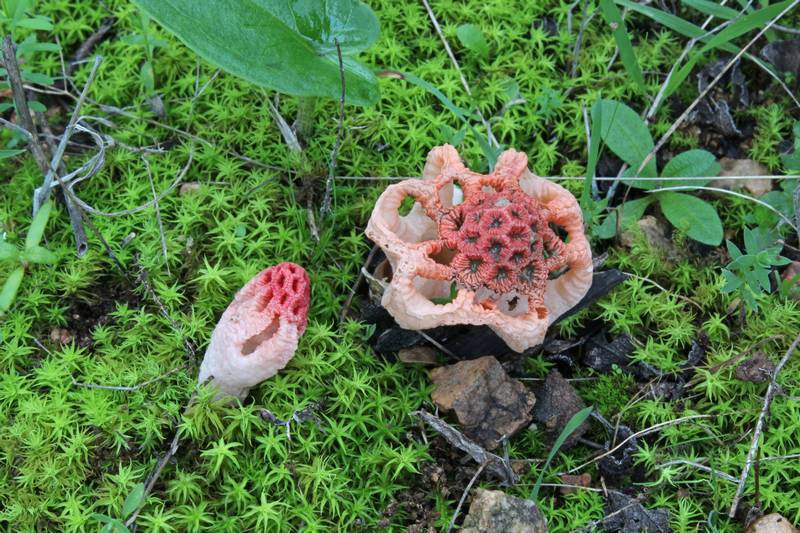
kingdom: Fungi
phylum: Basidiomycota
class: Agaricomycetes
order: Phallales
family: Phallaceae
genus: Colus
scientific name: Colus hirudinosus
